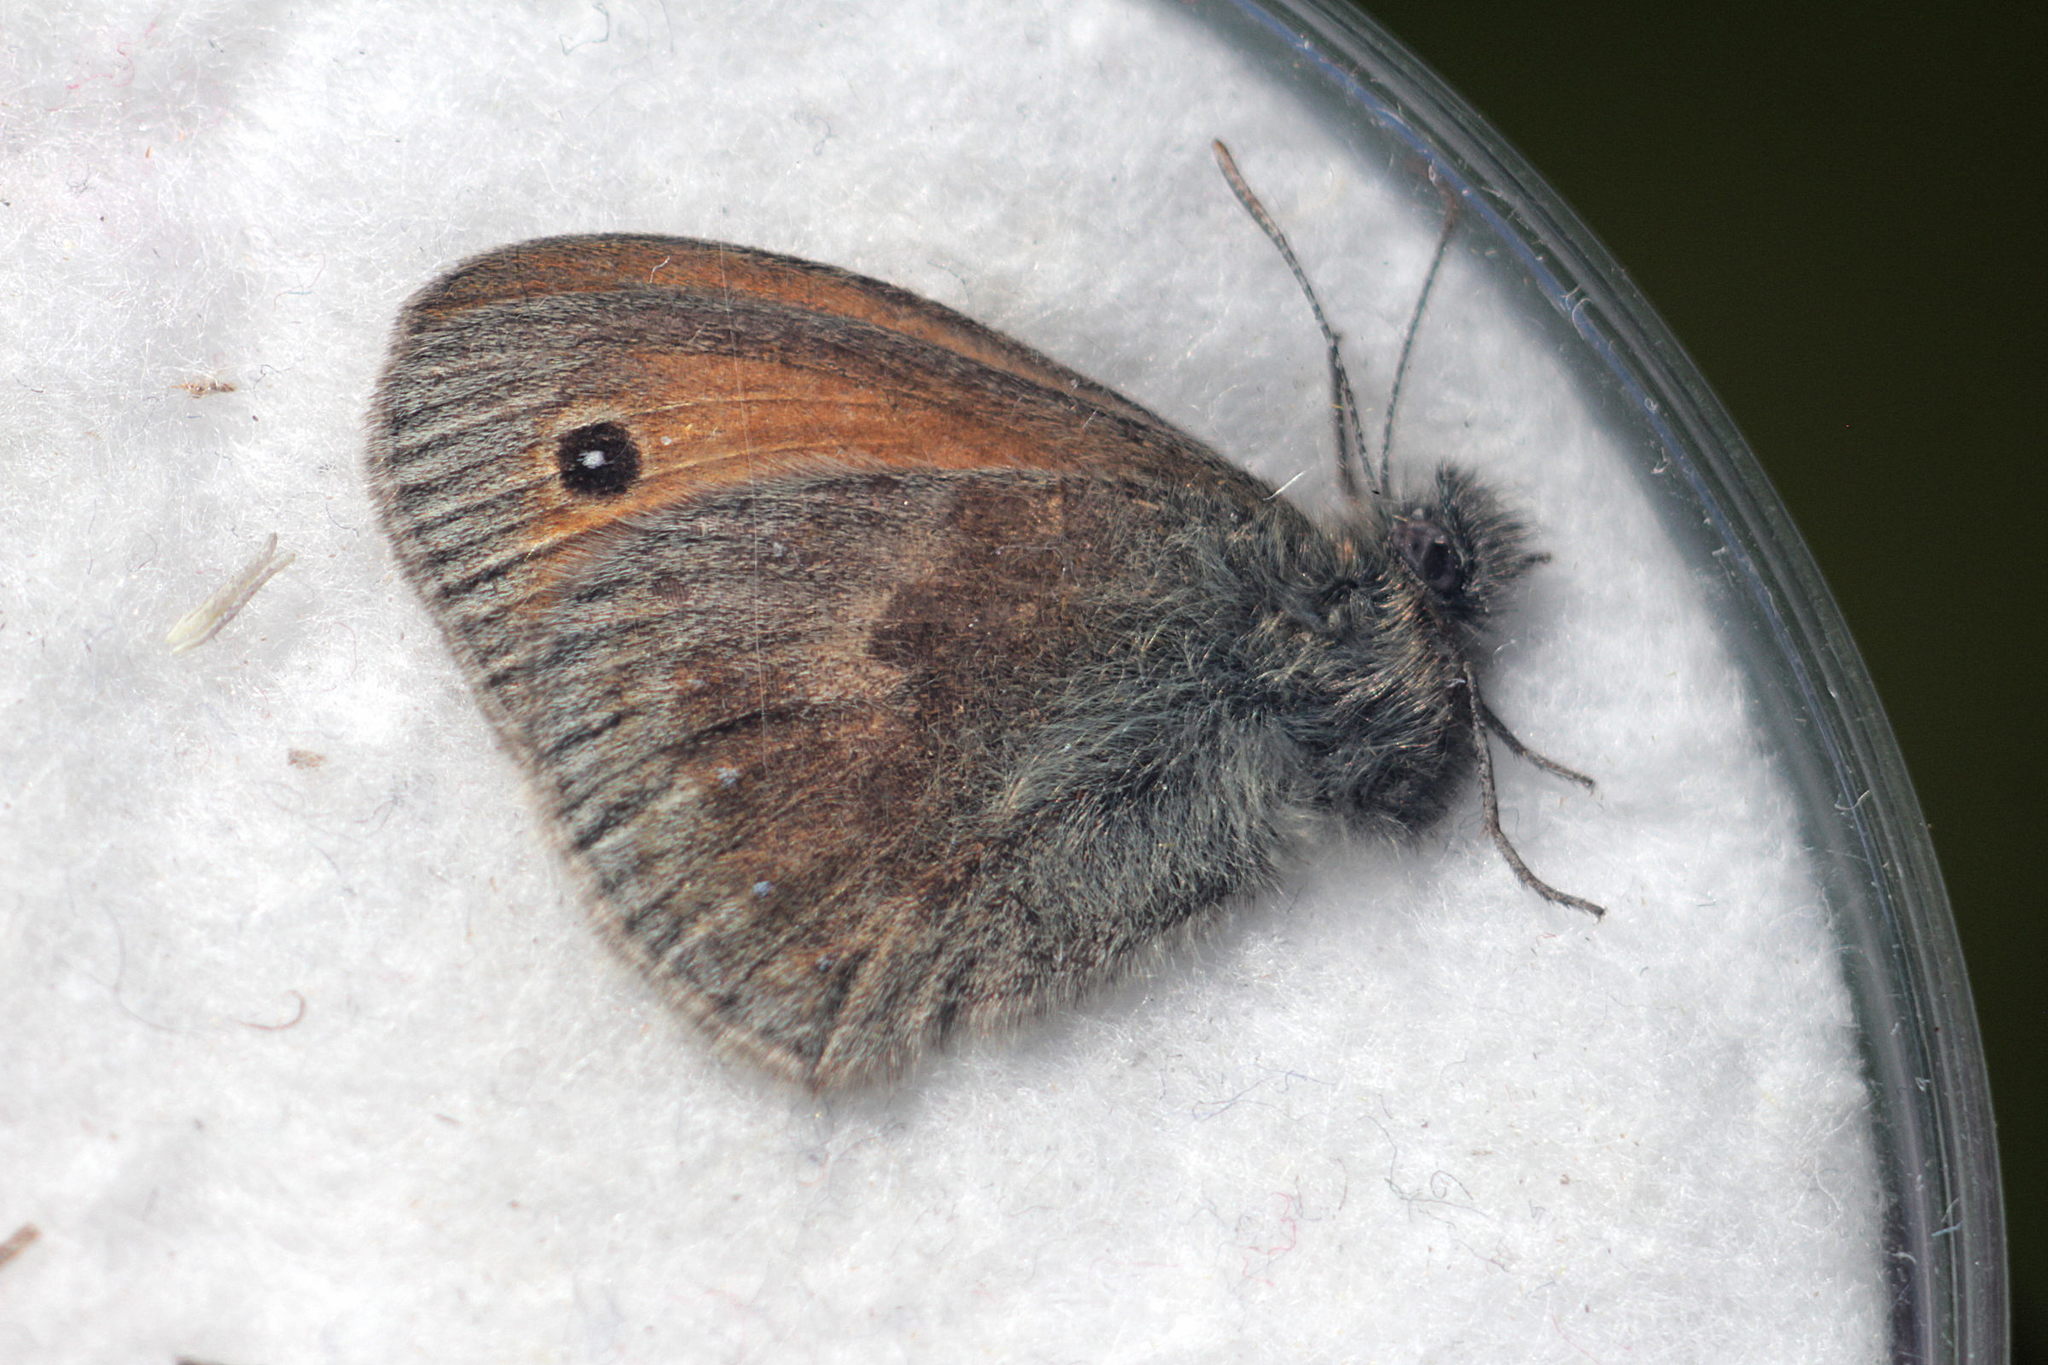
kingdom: Animalia
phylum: Arthropoda
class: Insecta
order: Lepidoptera
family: Nymphalidae
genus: Coenonympha
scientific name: Coenonympha pamphilus
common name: Small heath
